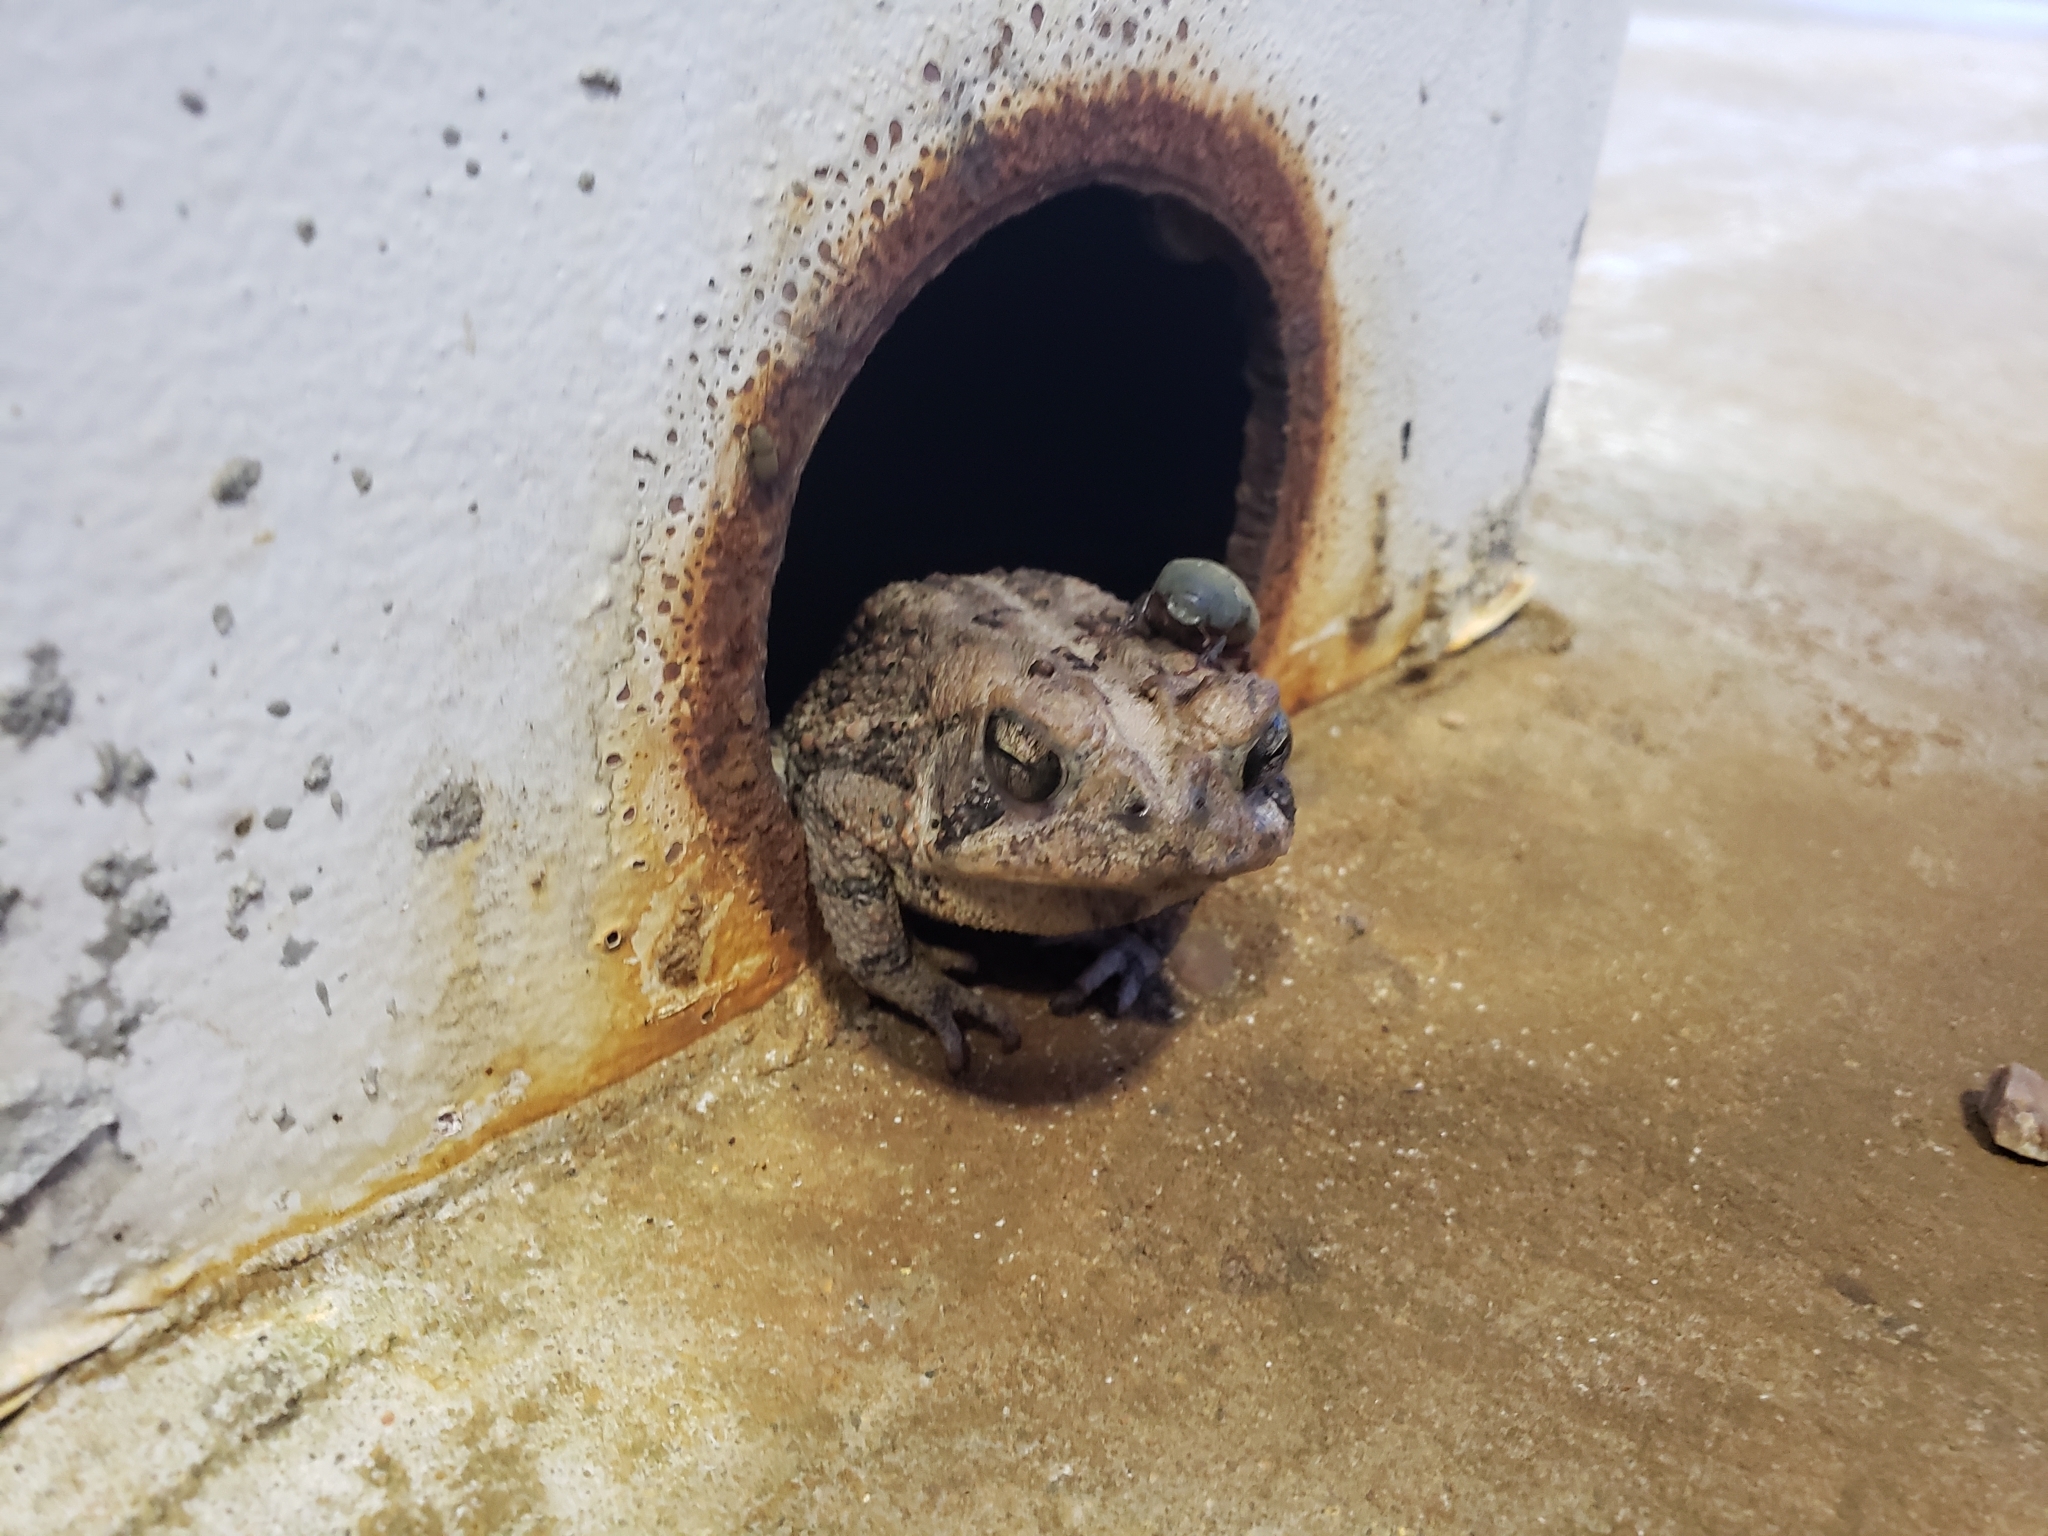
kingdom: Animalia
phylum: Chordata
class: Amphibia
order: Anura
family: Bufonidae
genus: Anaxyrus
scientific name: Anaxyrus fowleri
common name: Fowler's toad
